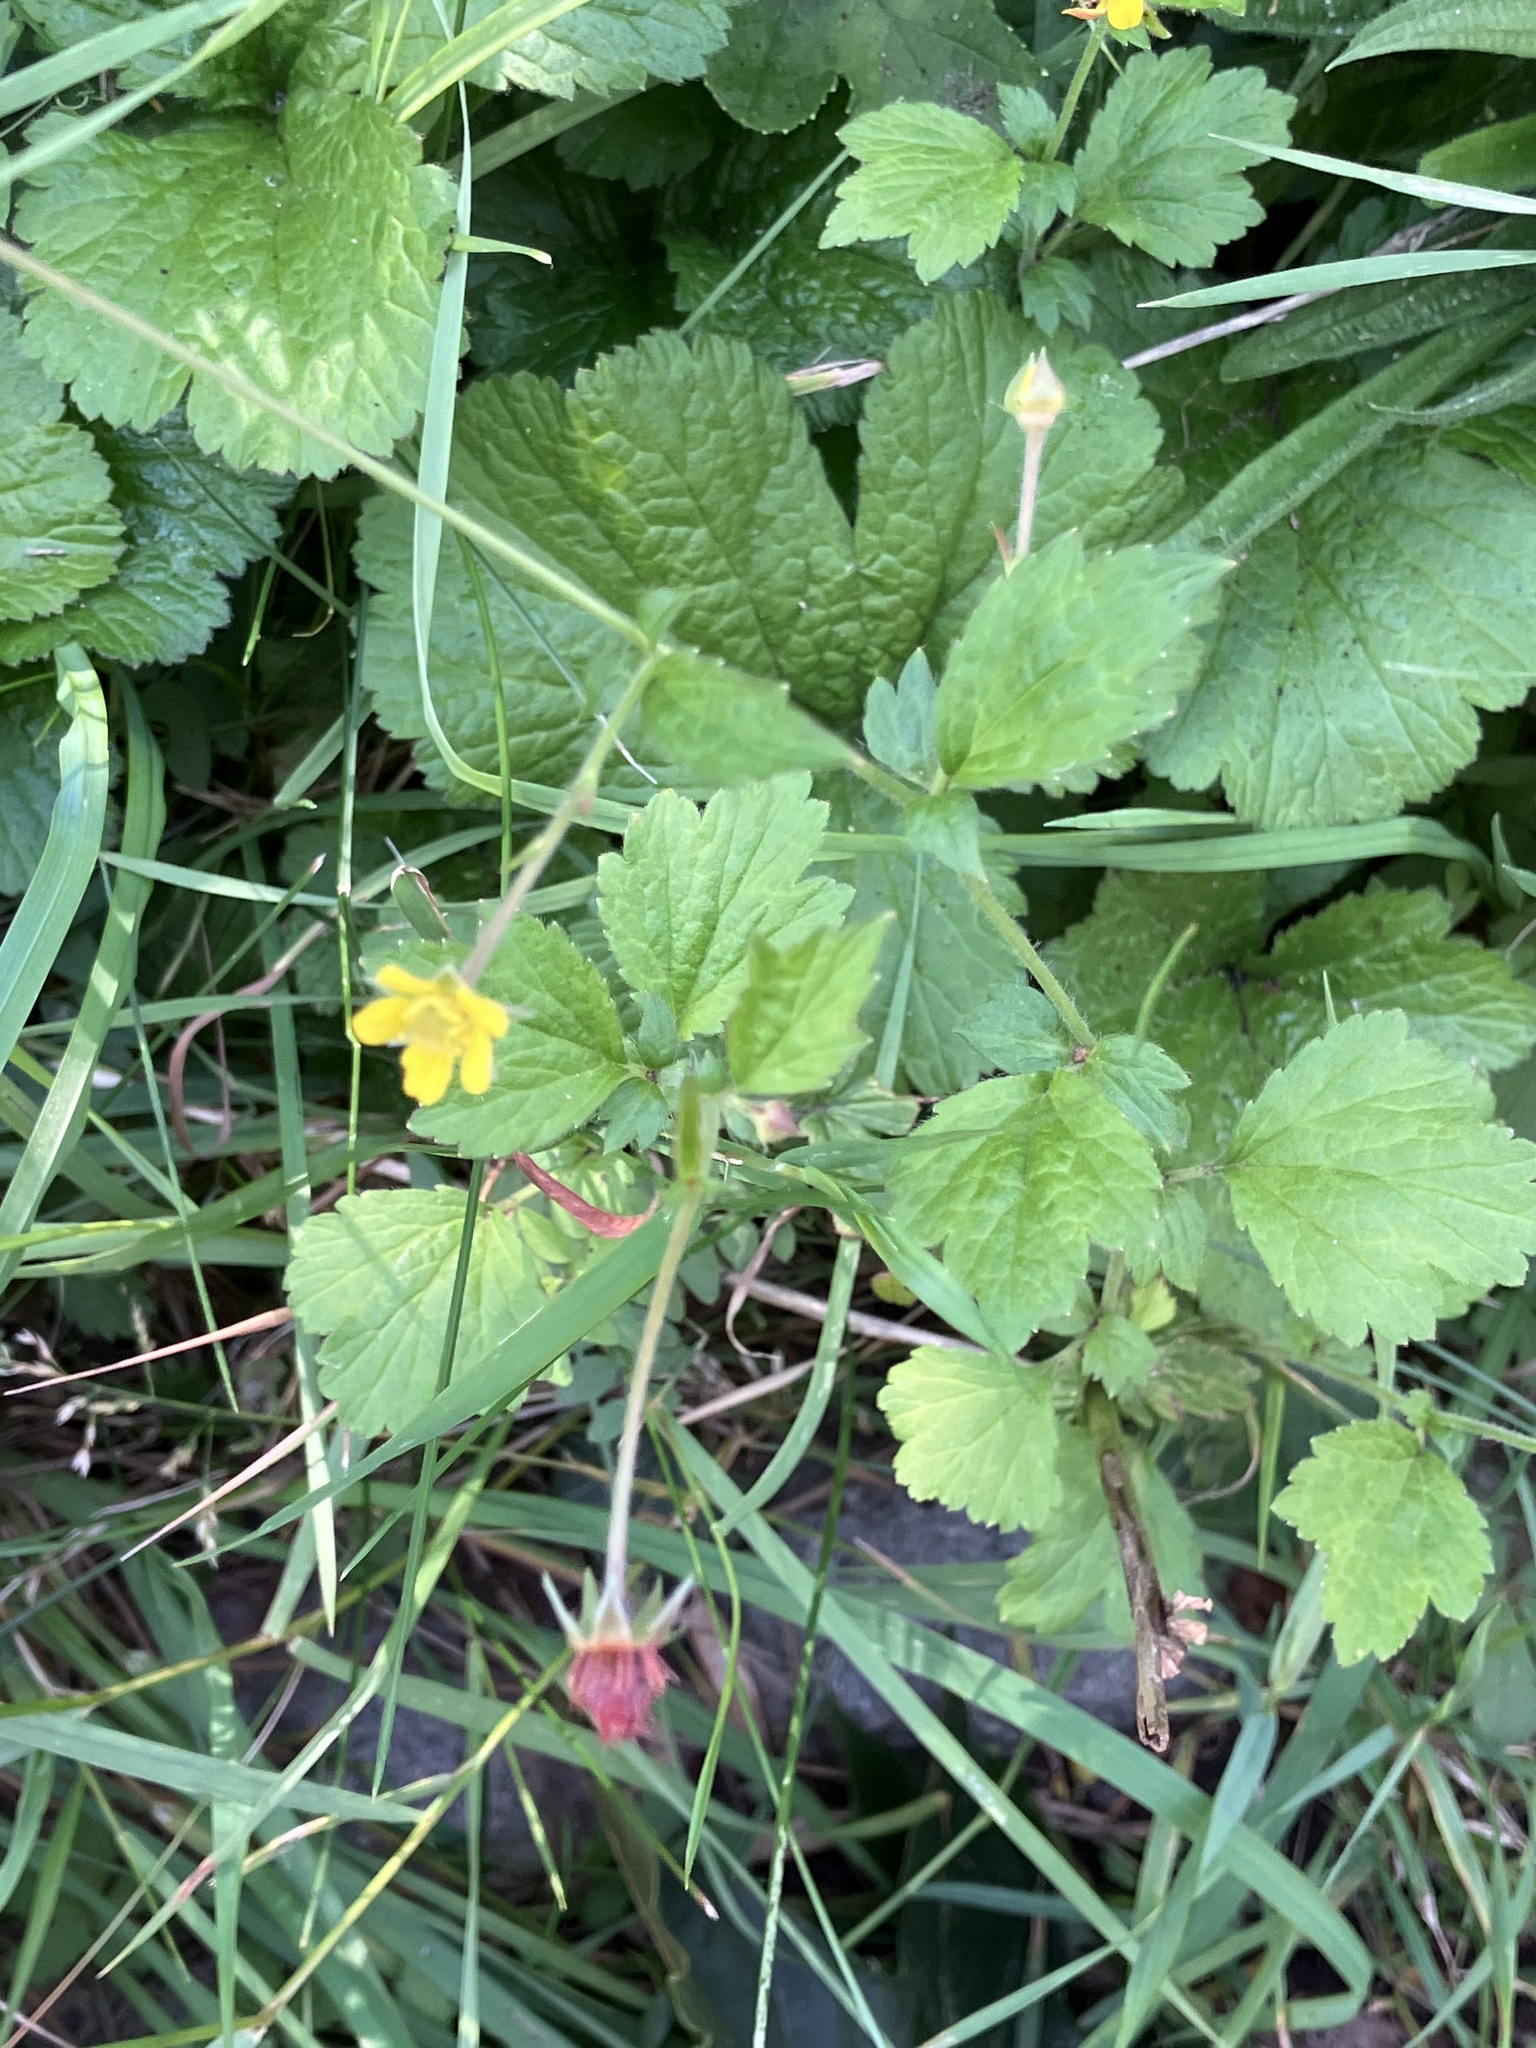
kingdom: Plantae
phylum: Tracheophyta
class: Magnoliopsida
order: Rosales
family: Rosaceae
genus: Geum
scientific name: Geum urbanum
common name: Wood avens
